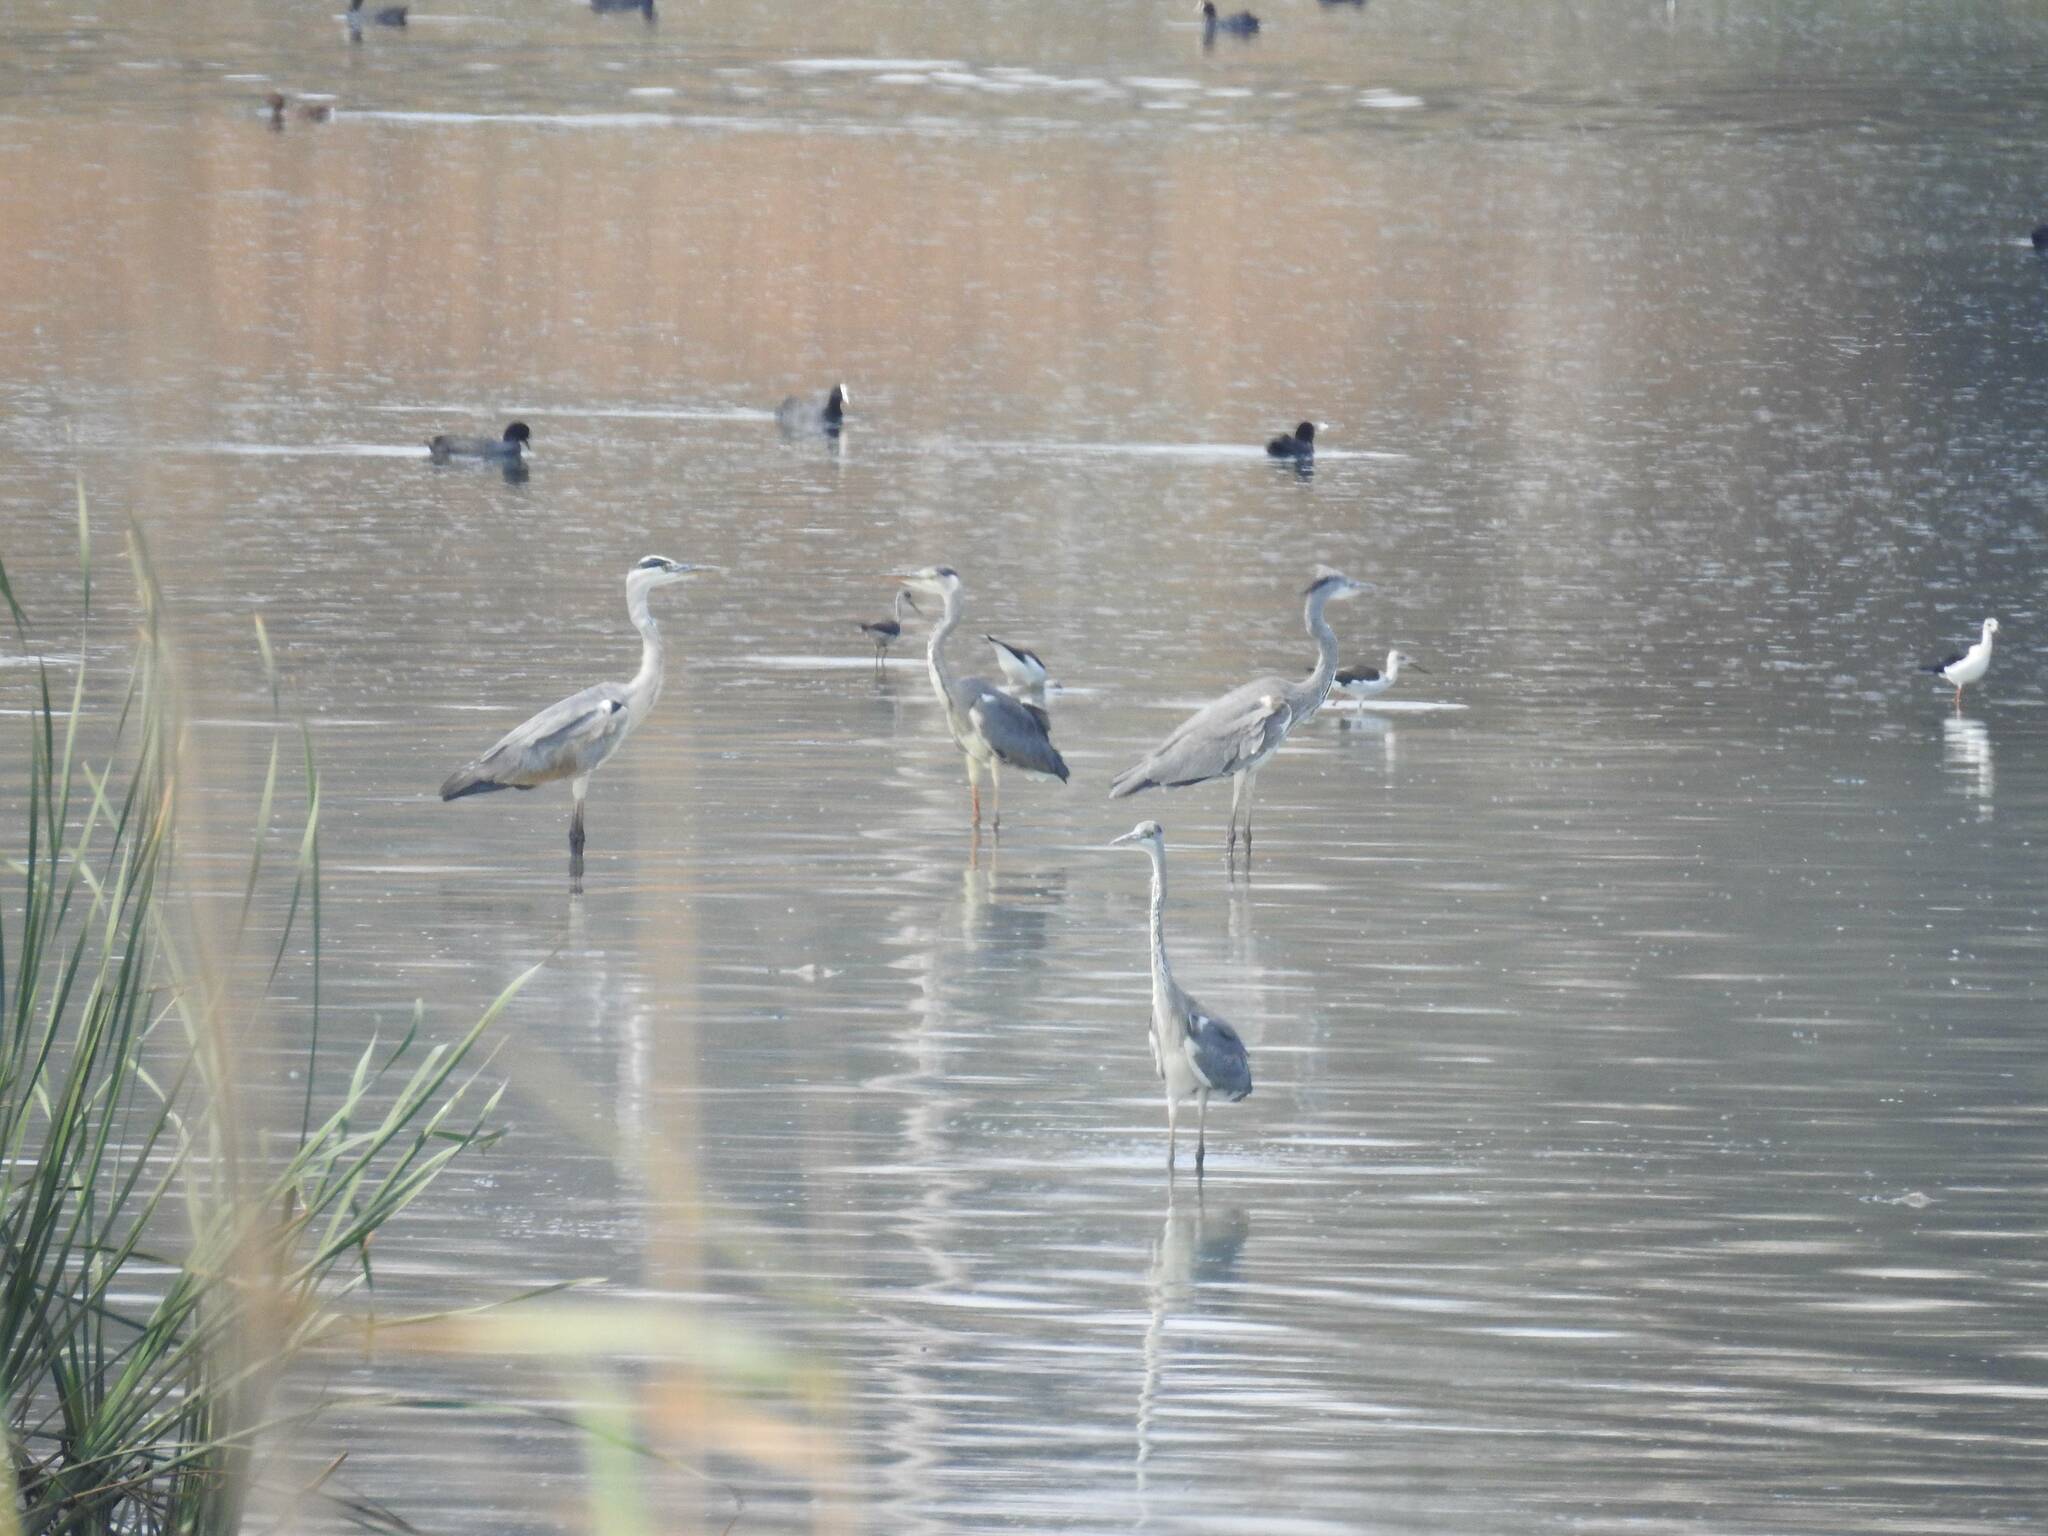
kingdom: Animalia
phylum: Chordata
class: Aves
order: Pelecaniformes
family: Ardeidae
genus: Ardea
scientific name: Ardea cinerea
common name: Grey heron
